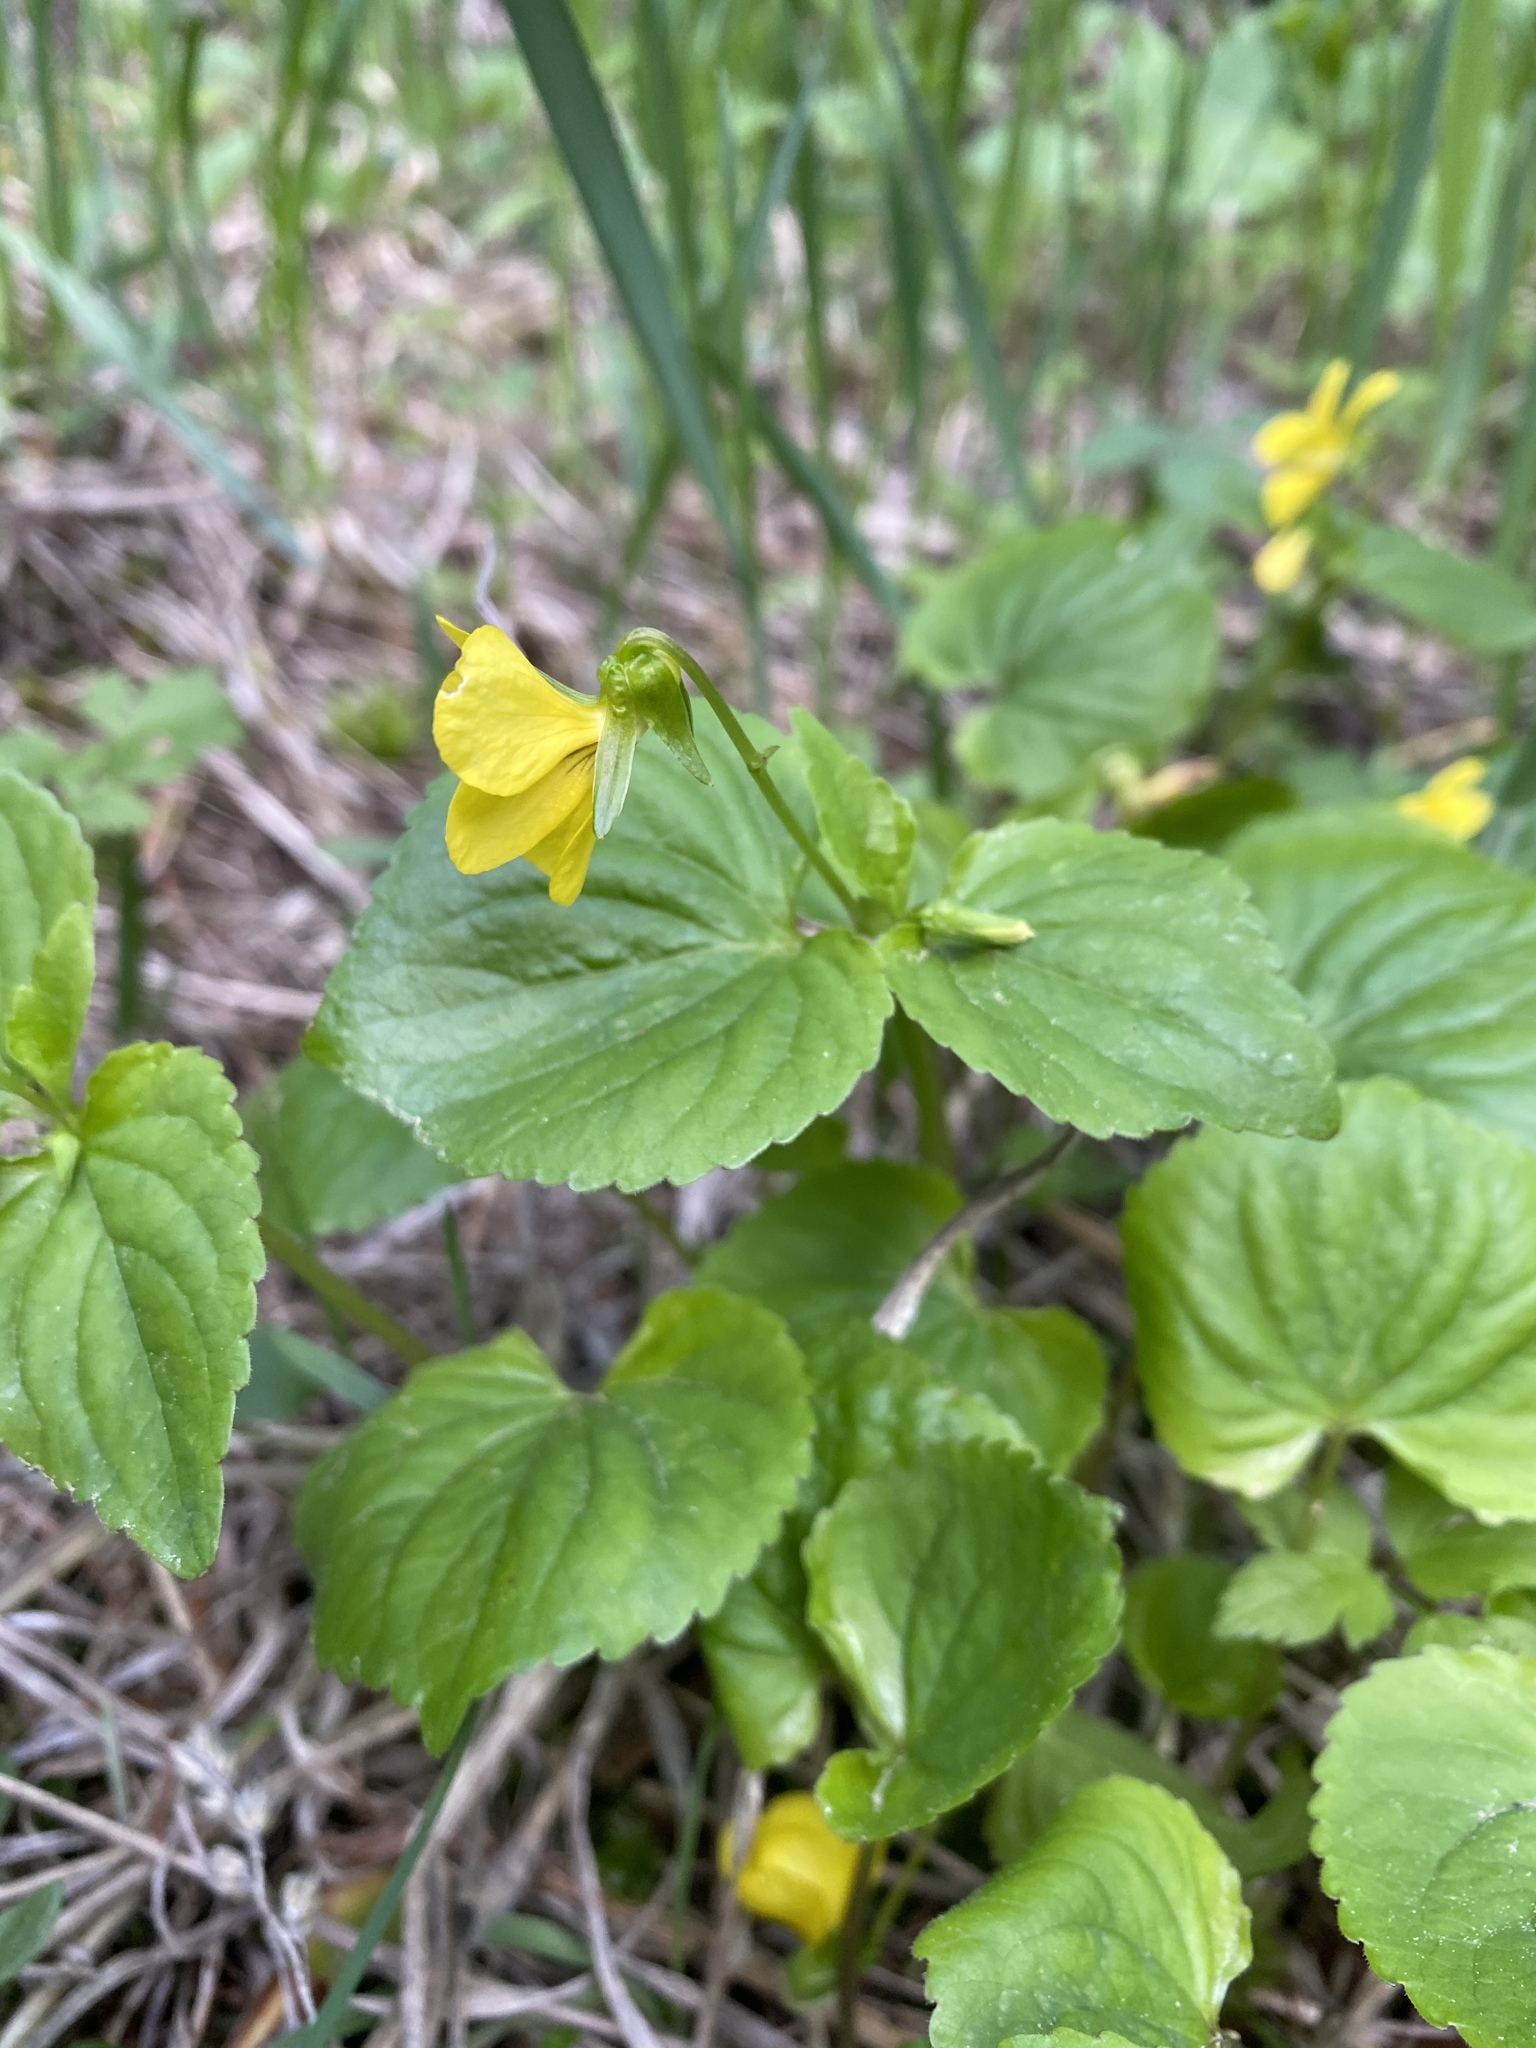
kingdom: Plantae
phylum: Tracheophyta
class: Magnoliopsida
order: Malpighiales
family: Violaceae
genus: Viola
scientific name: Viola glabella
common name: Stream violet
